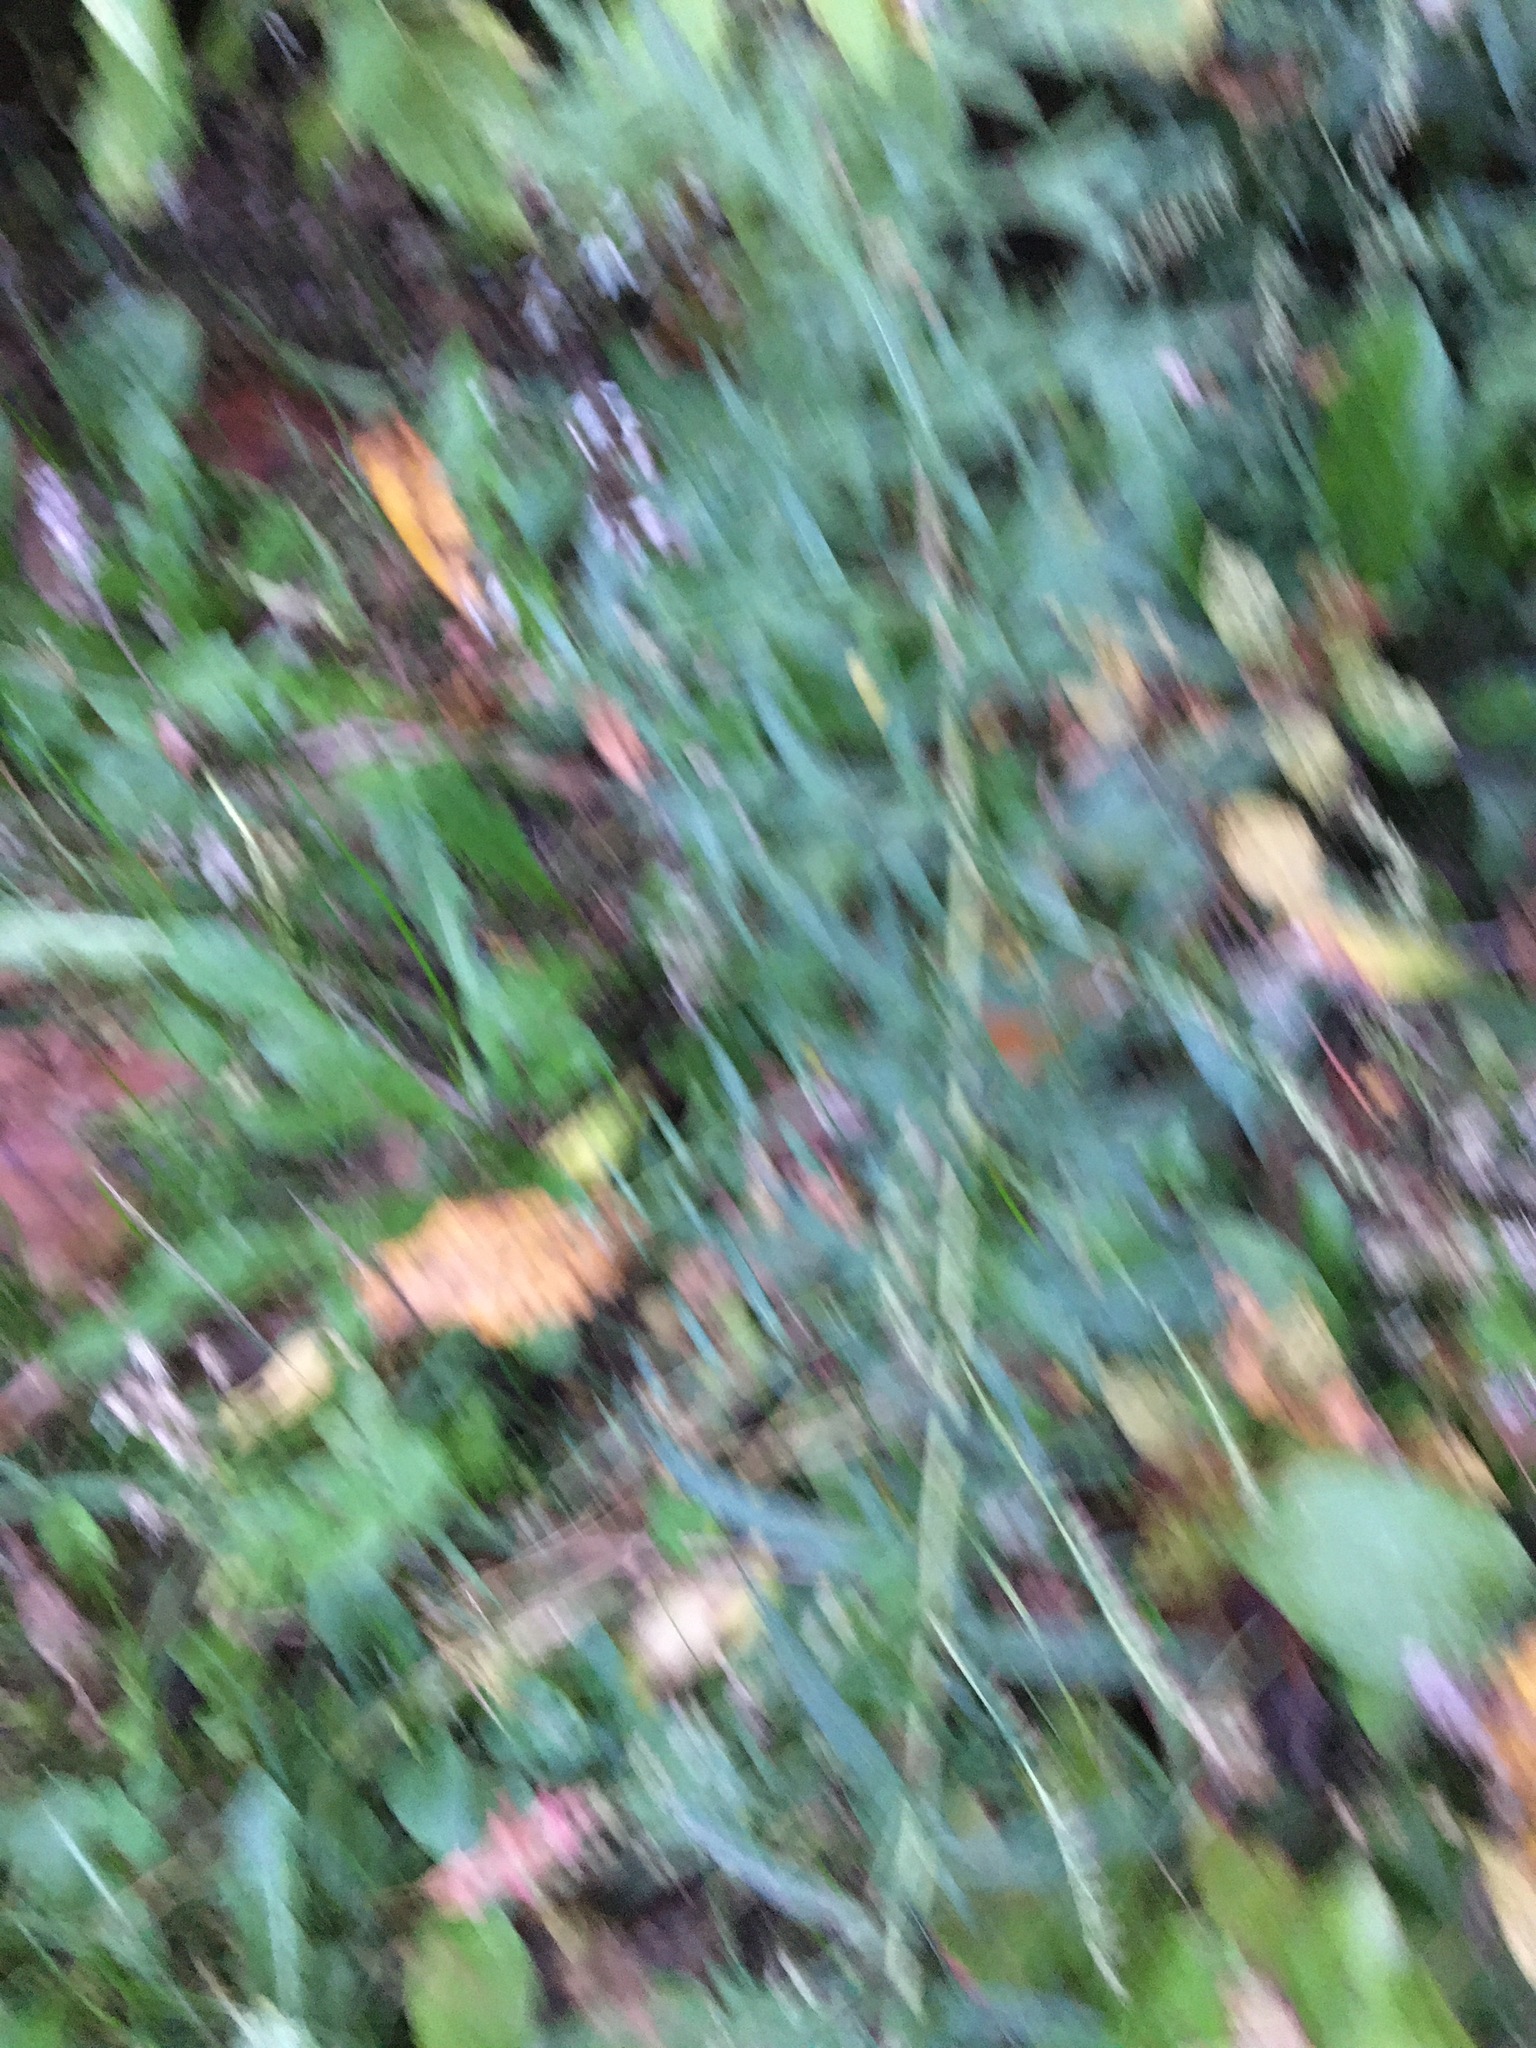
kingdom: Plantae
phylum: Tracheophyta
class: Magnoliopsida
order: Asterales
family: Asteraceae
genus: Artemisia
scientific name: Artemisia vulgaris
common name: Mugwort
